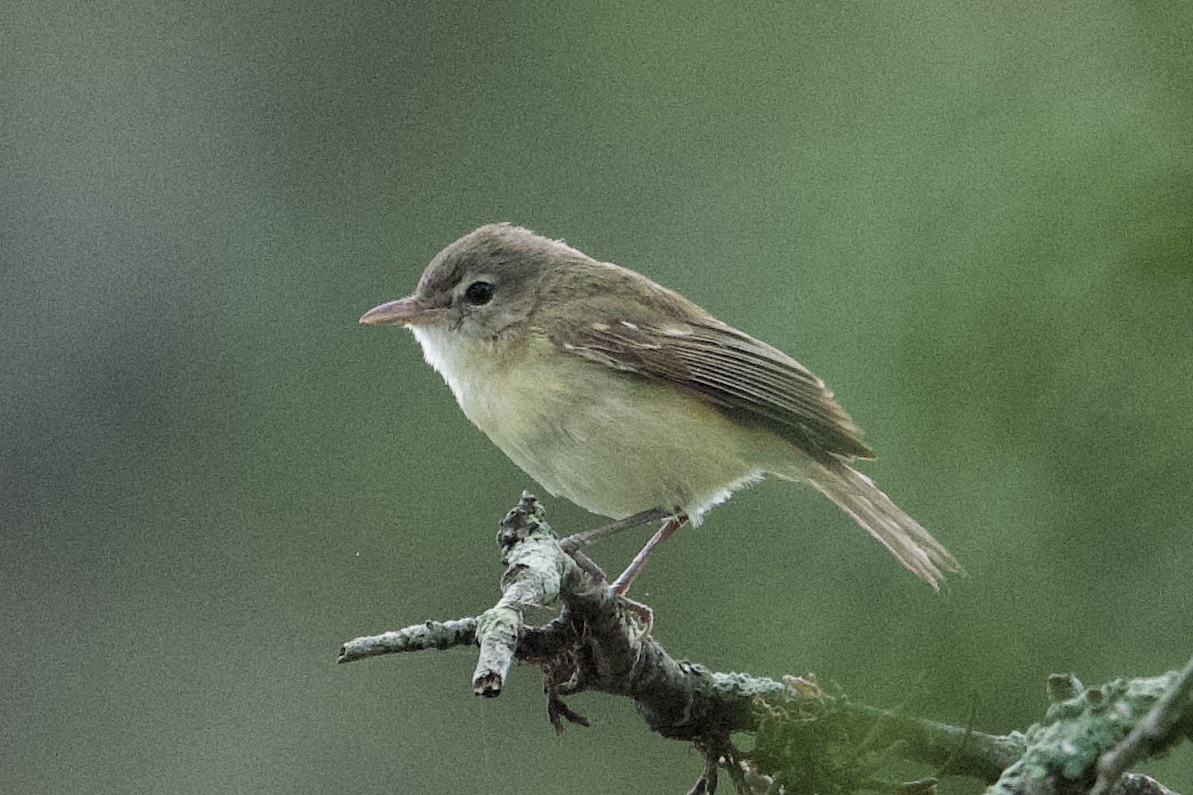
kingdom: Animalia
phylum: Chordata
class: Aves
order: Passeriformes
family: Vireonidae
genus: Vireo
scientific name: Vireo bellii
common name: Bell's vireo
